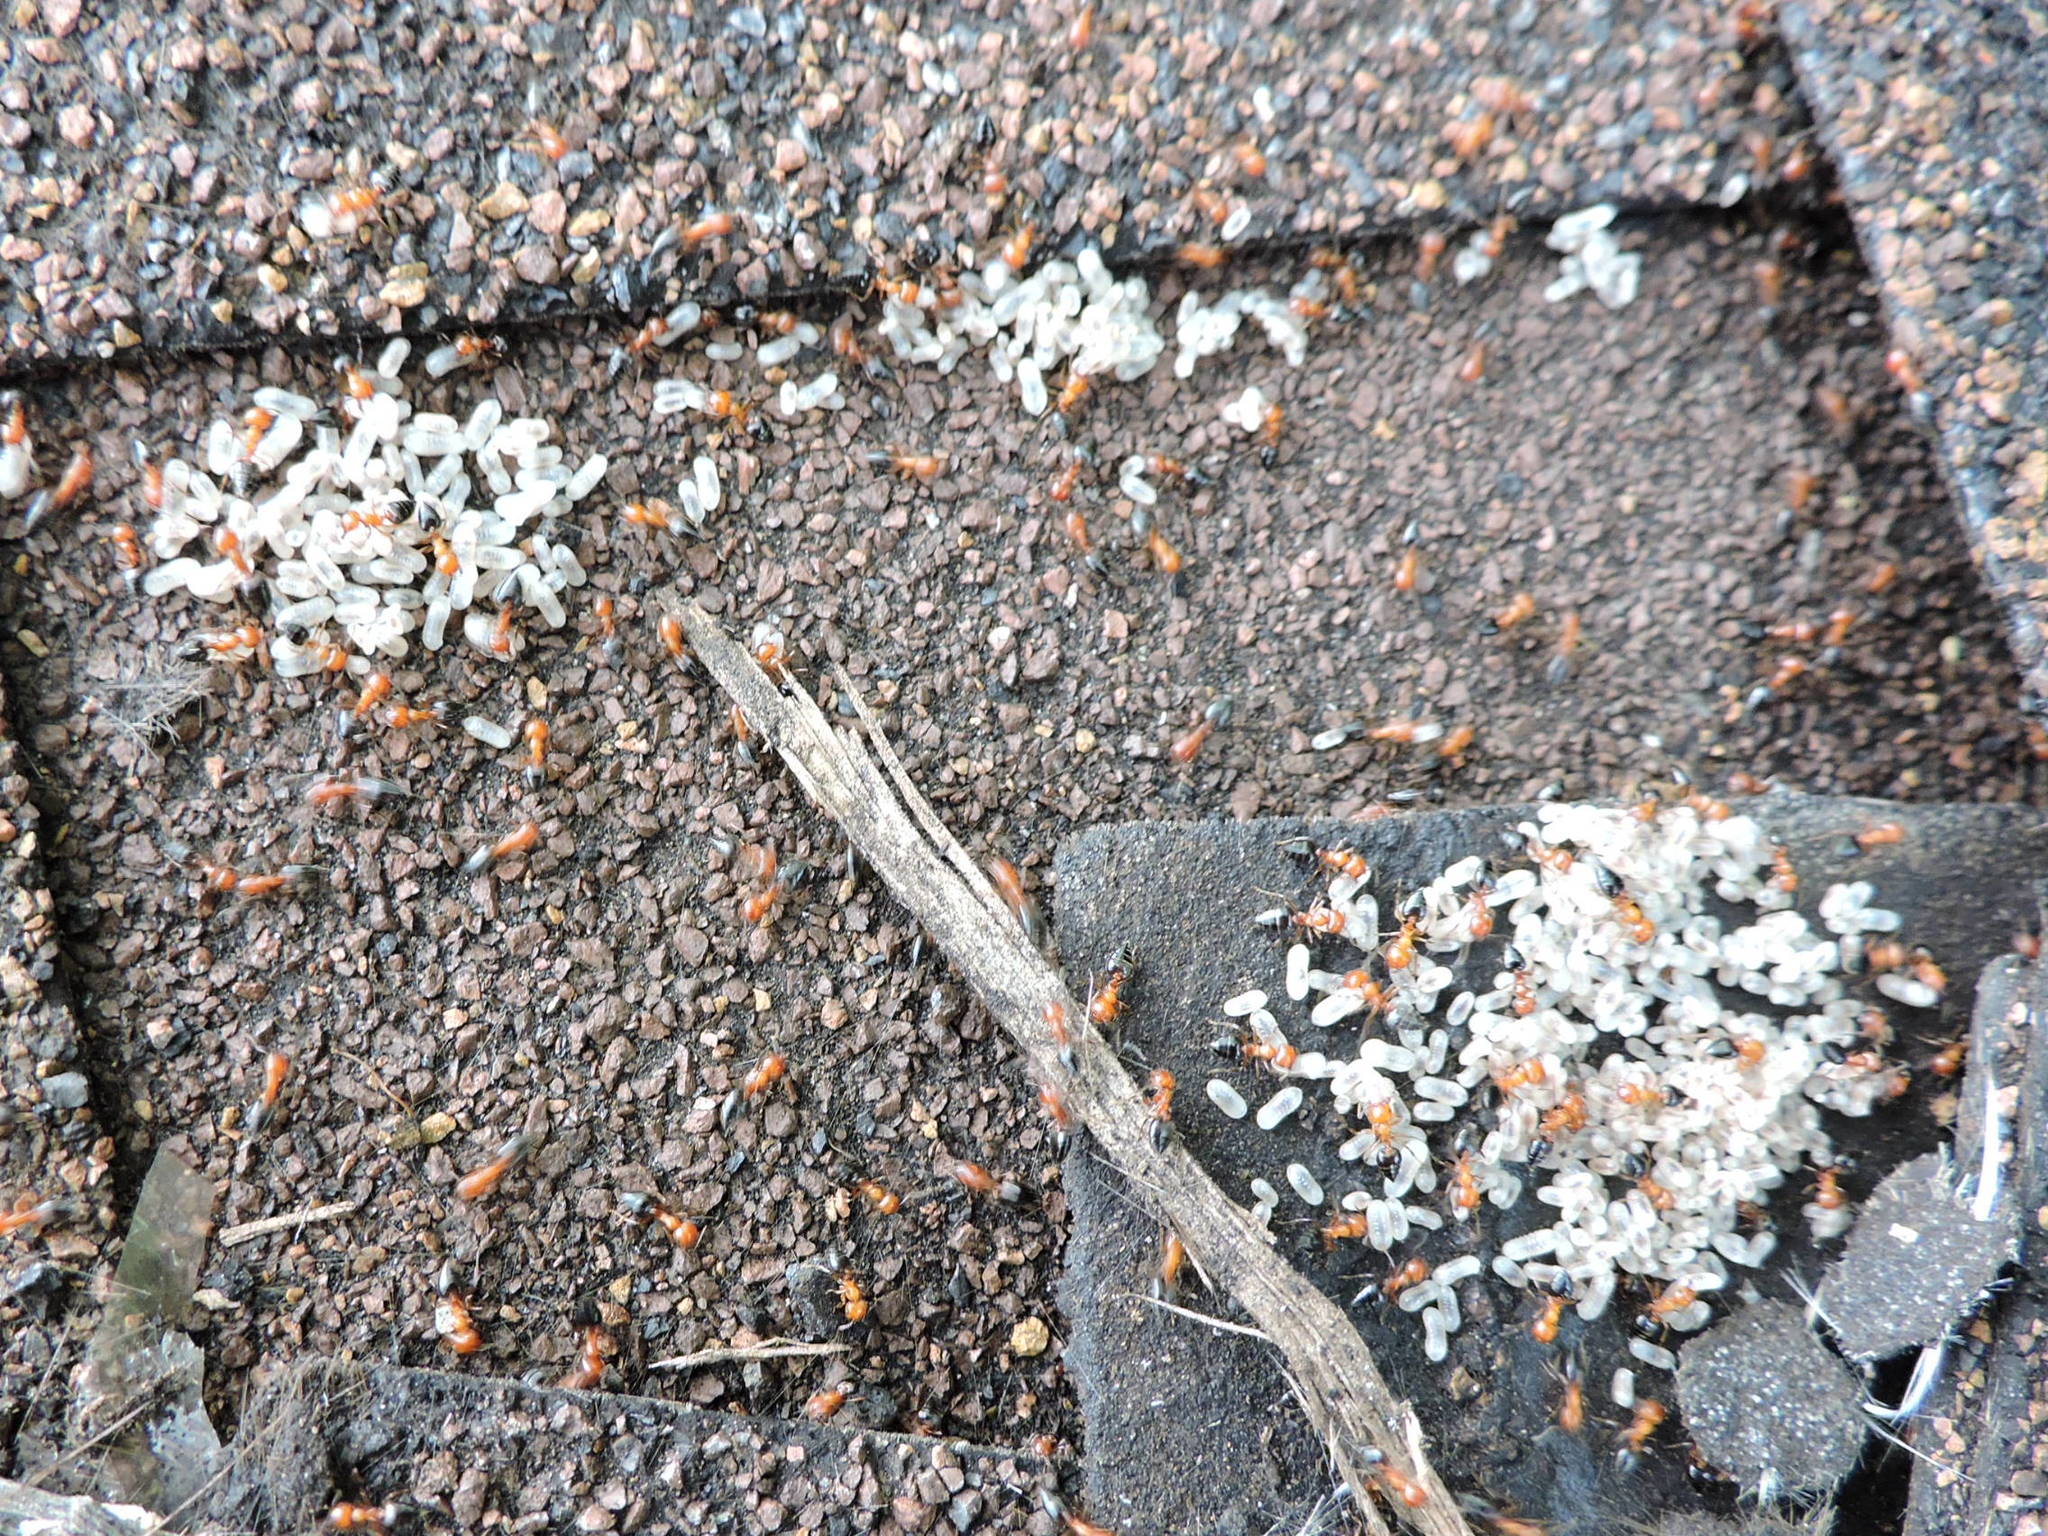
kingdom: Animalia
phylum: Arthropoda
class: Insecta
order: Hymenoptera
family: Formicidae
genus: Crematogaster
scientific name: Crematogaster laeviuscula
